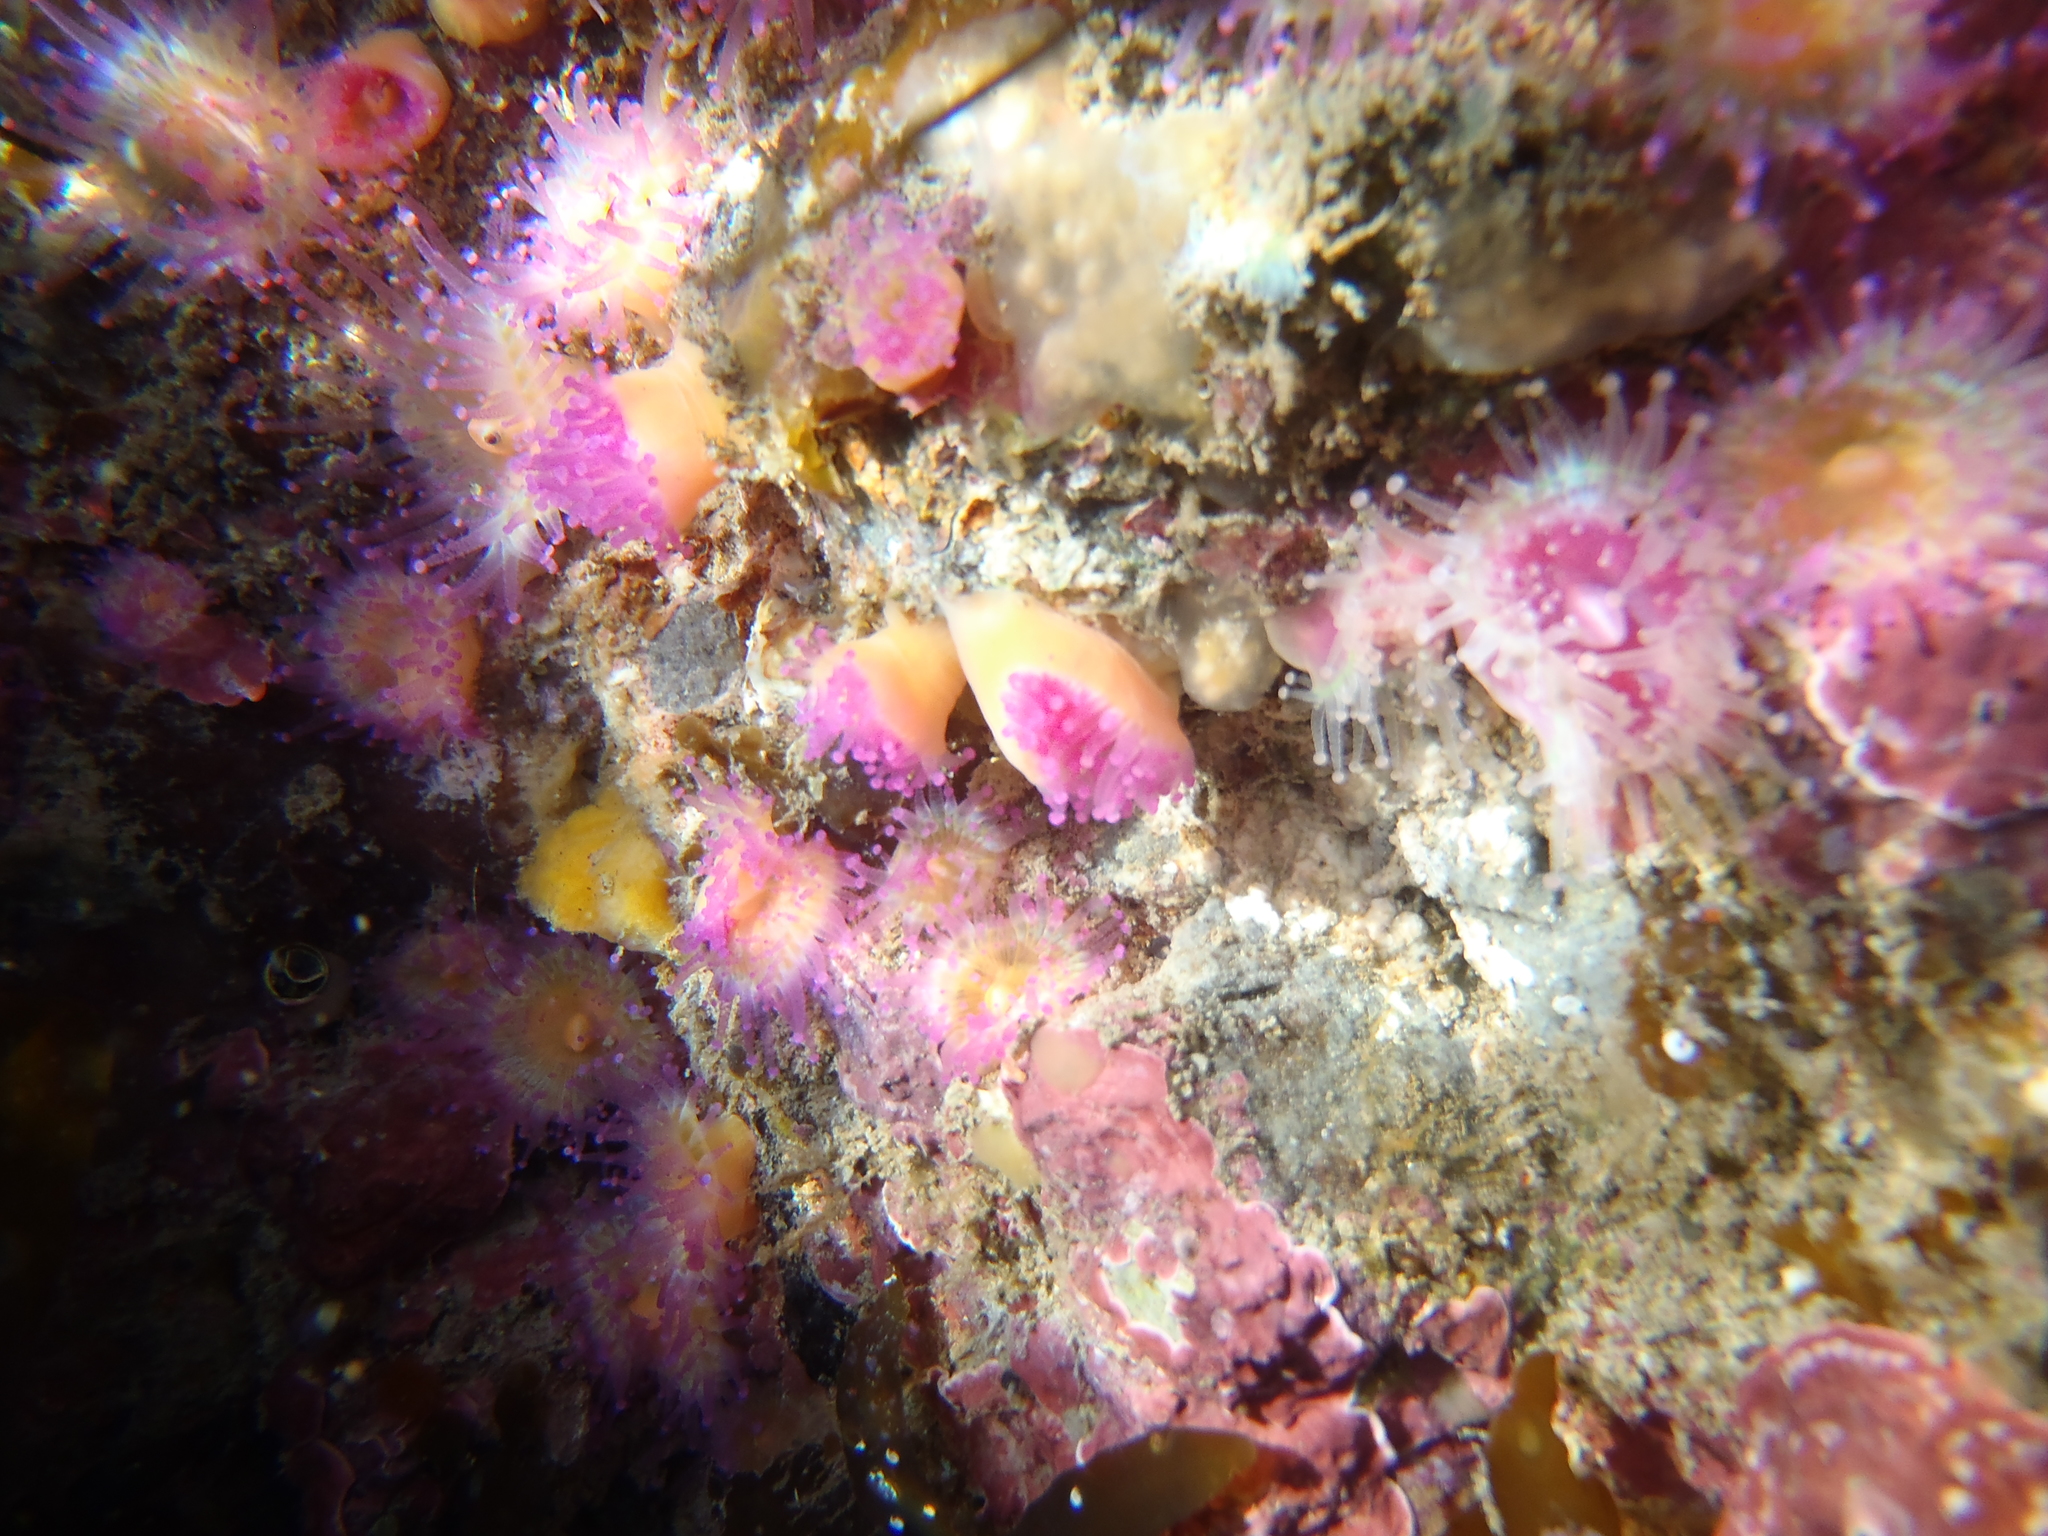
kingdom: Animalia
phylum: Cnidaria
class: Anthozoa
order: Corallimorpharia
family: Corallimorphidae
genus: Corynactis
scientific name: Corynactis australis
